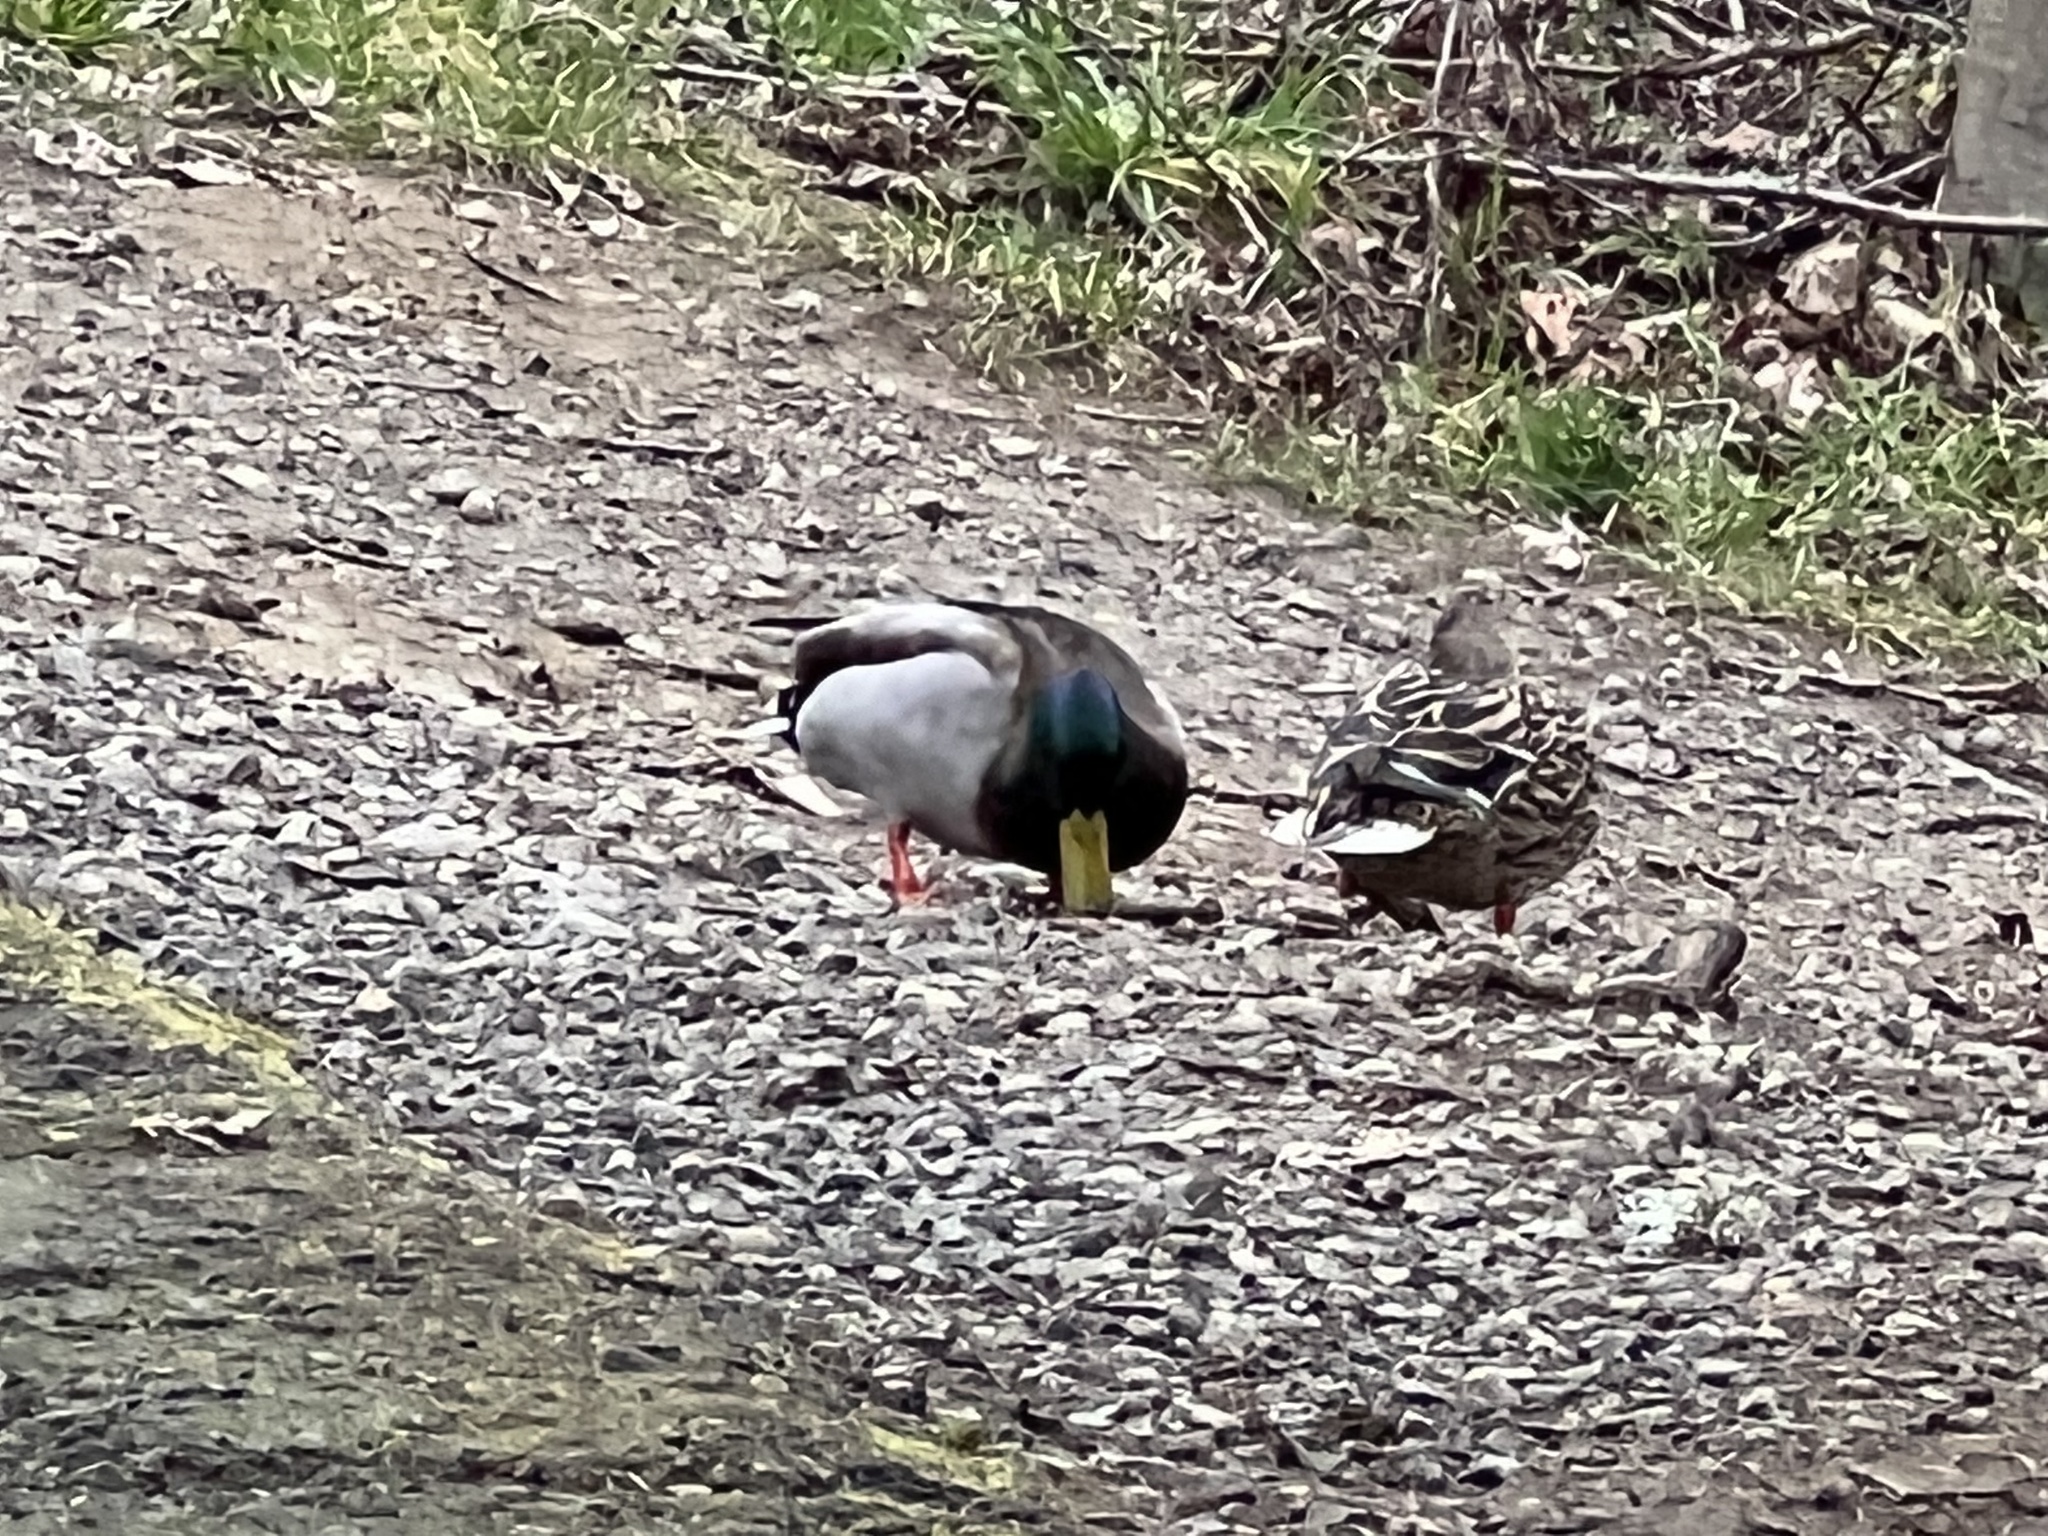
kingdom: Animalia
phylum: Chordata
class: Aves
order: Anseriformes
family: Anatidae
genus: Anas
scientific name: Anas platyrhynchos
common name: Mallard
